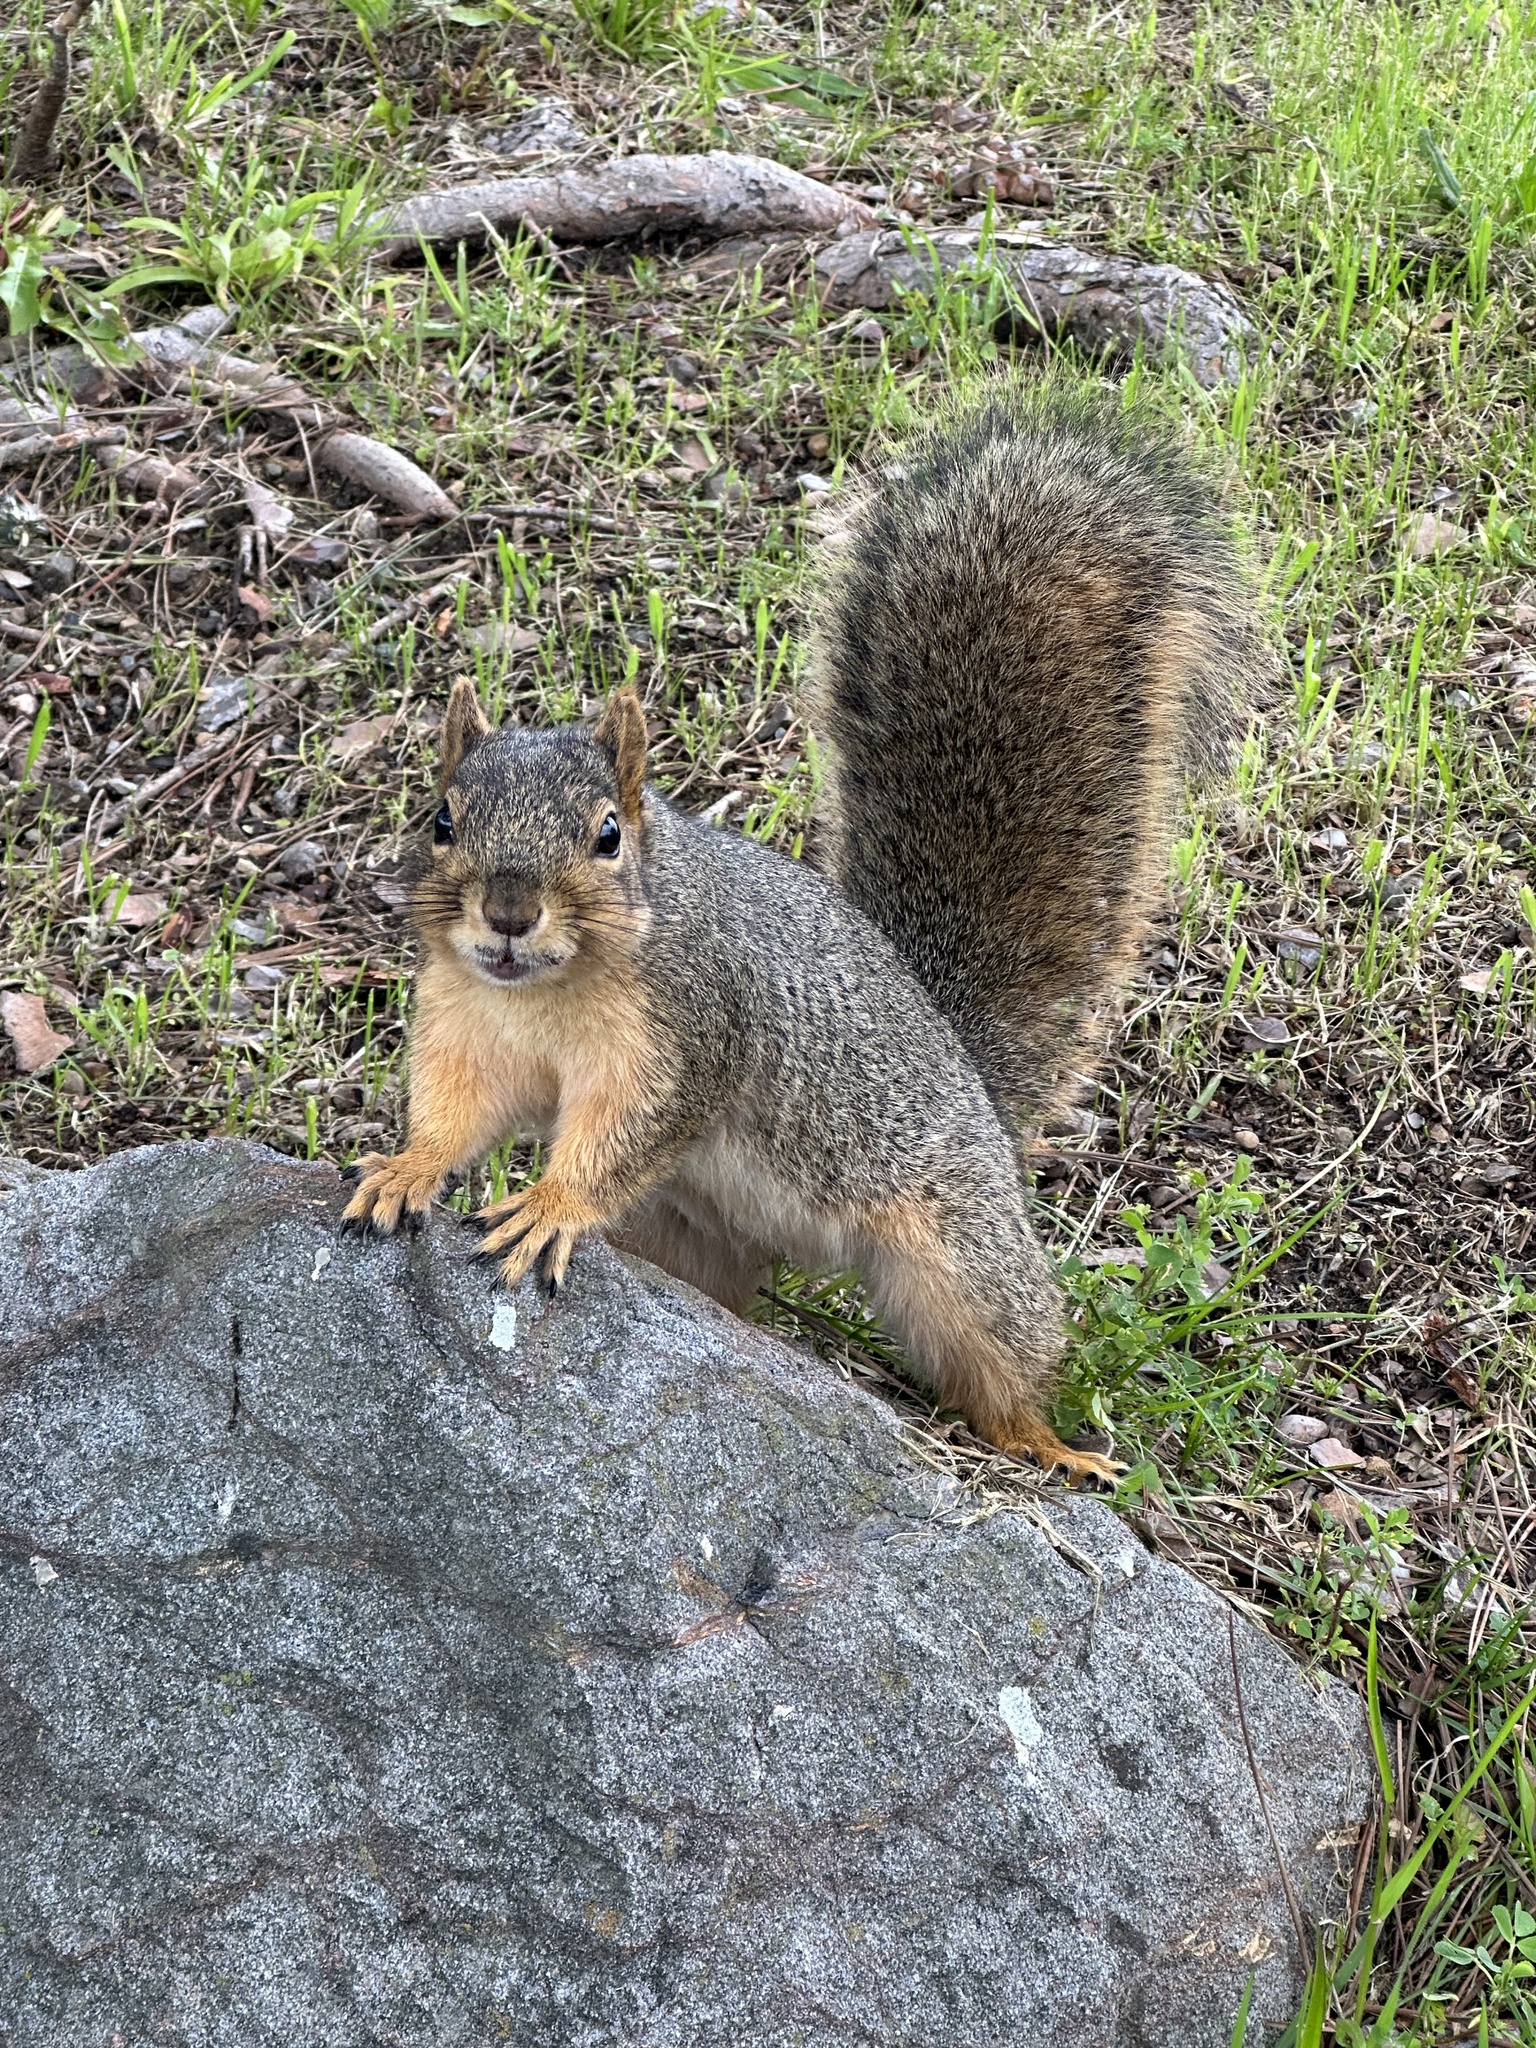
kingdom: Animalia
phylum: Chordata
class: Mammalia
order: Rodentia
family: Sciuridae
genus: Sciurus
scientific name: Sciurus niger
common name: Fox squirrel
